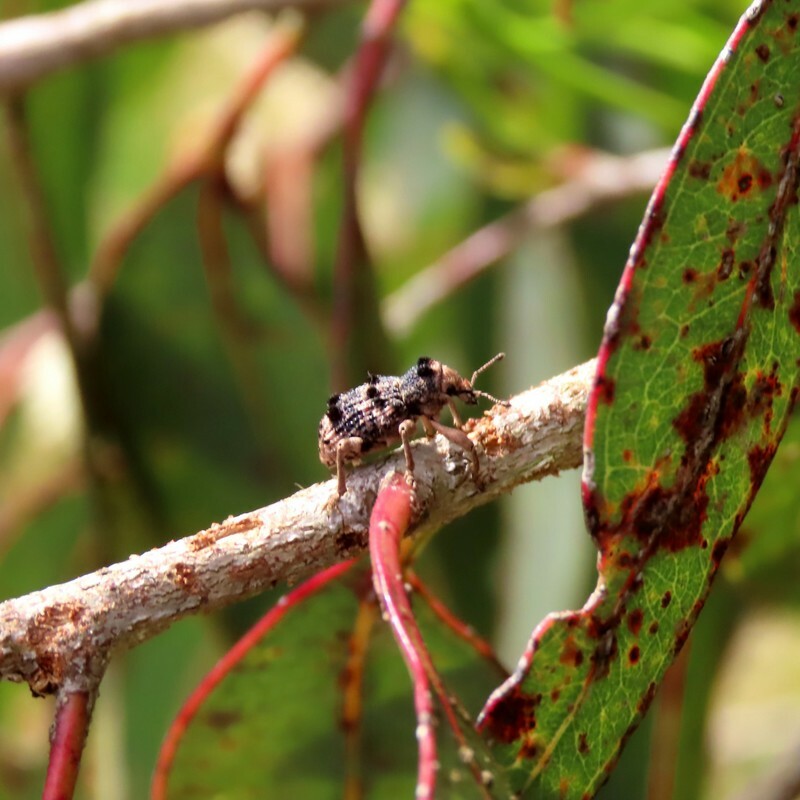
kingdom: Animalia
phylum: Arthropoda
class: Insecta
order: Coleoptera
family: Curculionidae
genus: Aades
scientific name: Aades cultratus
